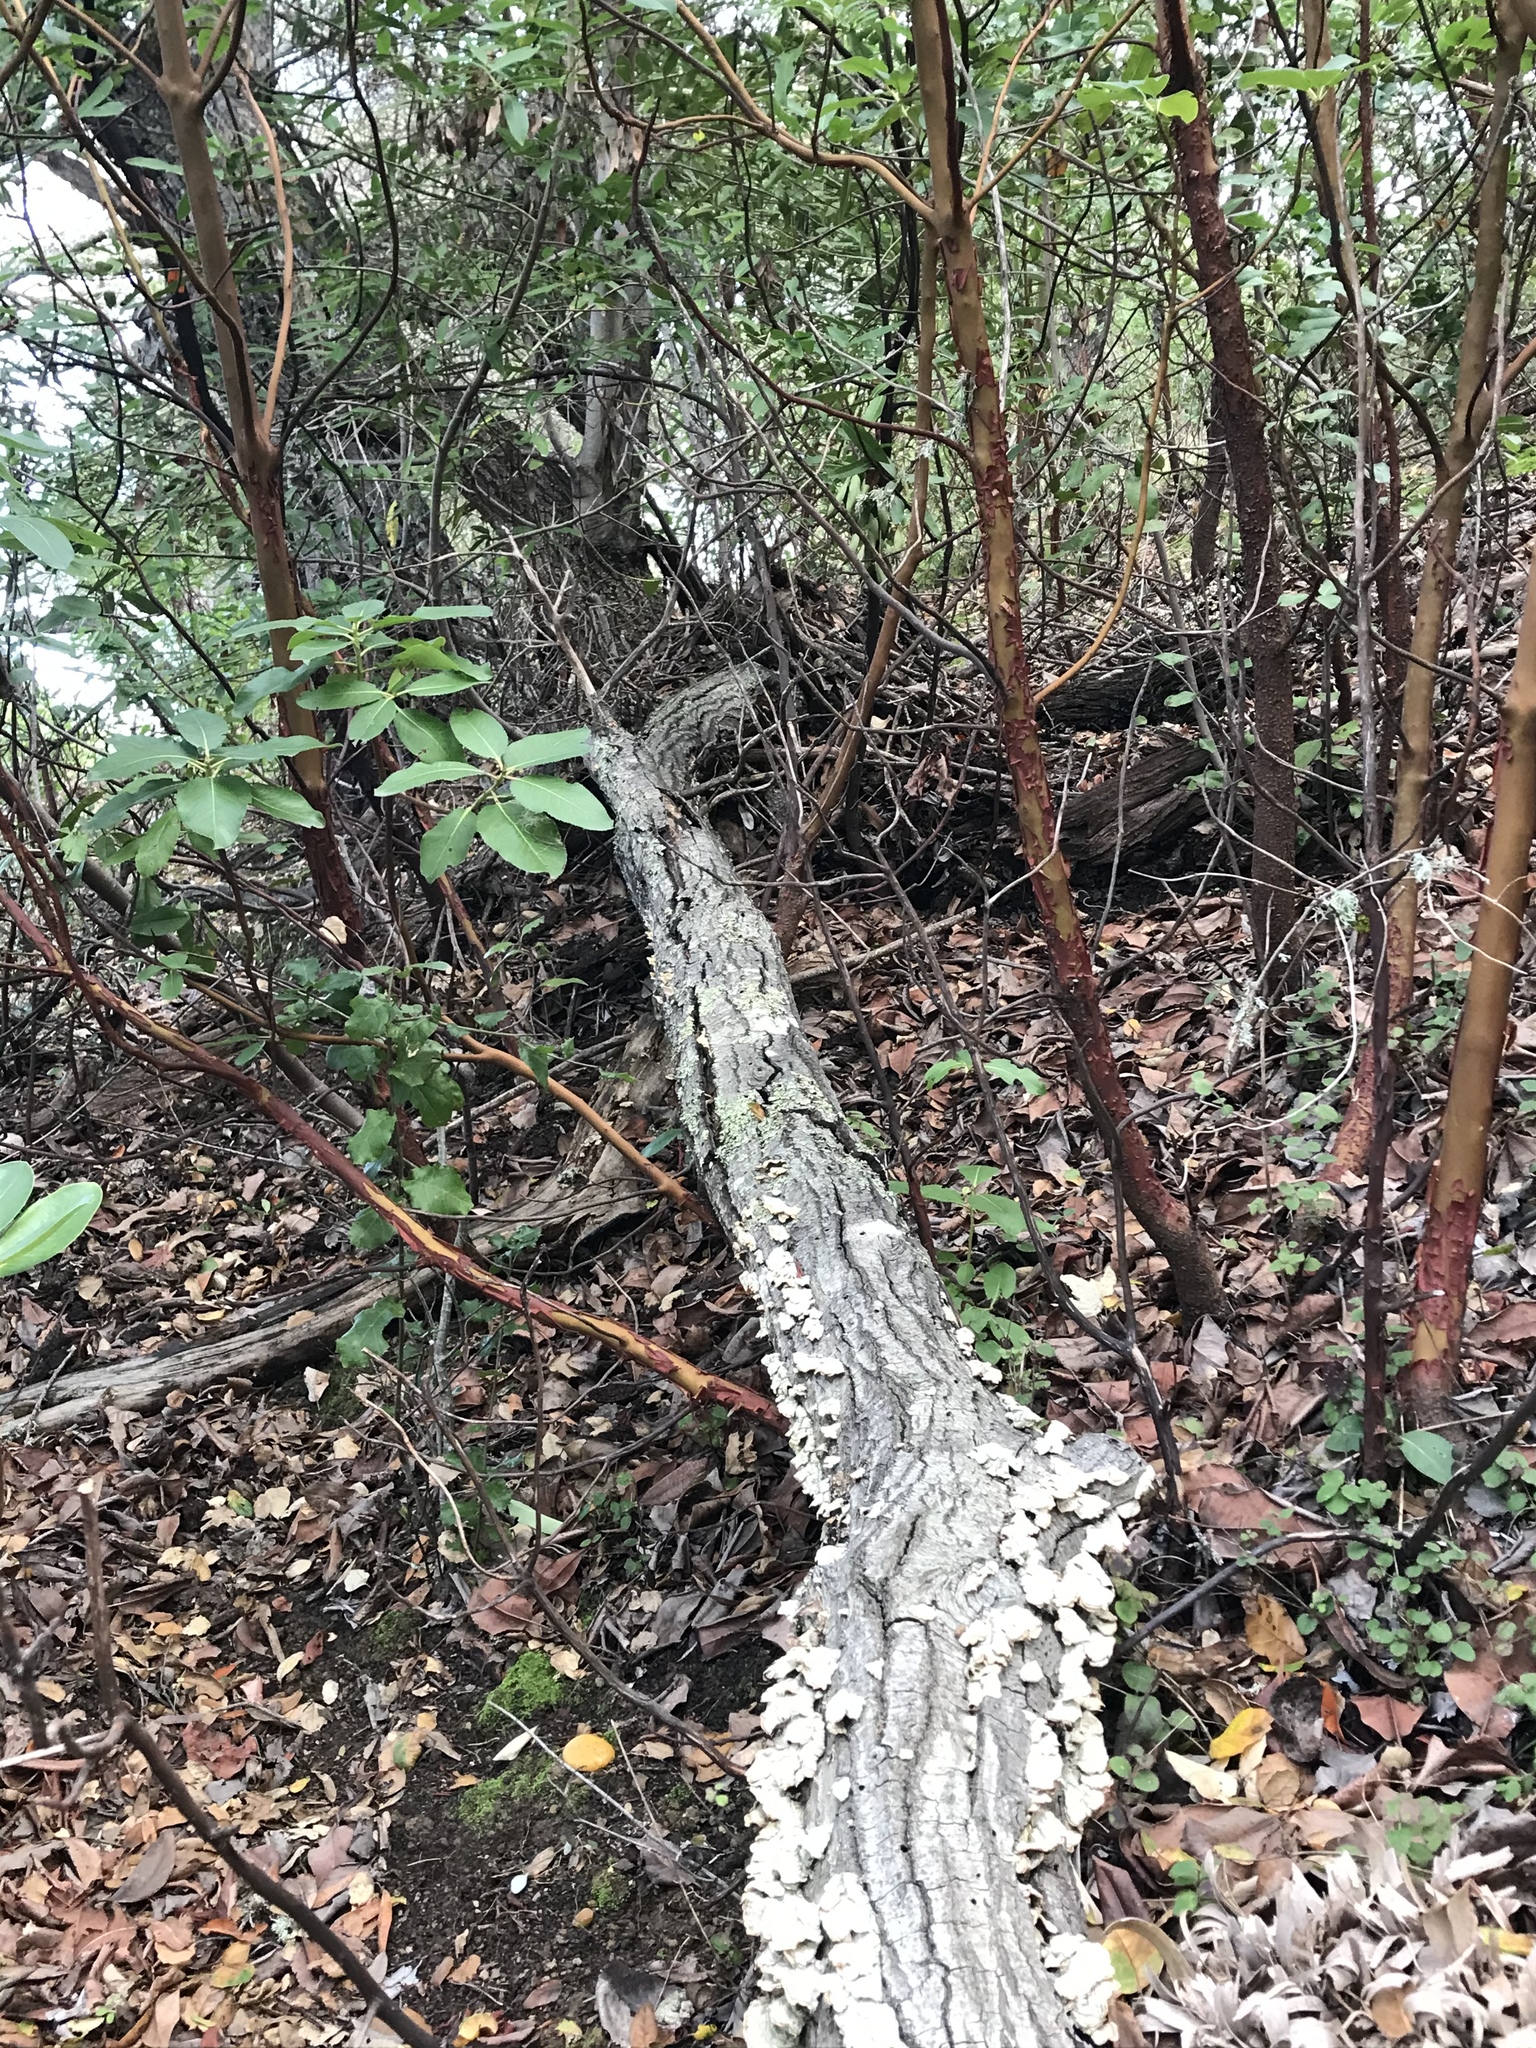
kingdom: Animalia
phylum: Chordata
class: Mammalia
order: Rodentia
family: Cricetidae
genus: Neotoma
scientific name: Neotoma fuscipes
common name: Dusky-footed woodrat
